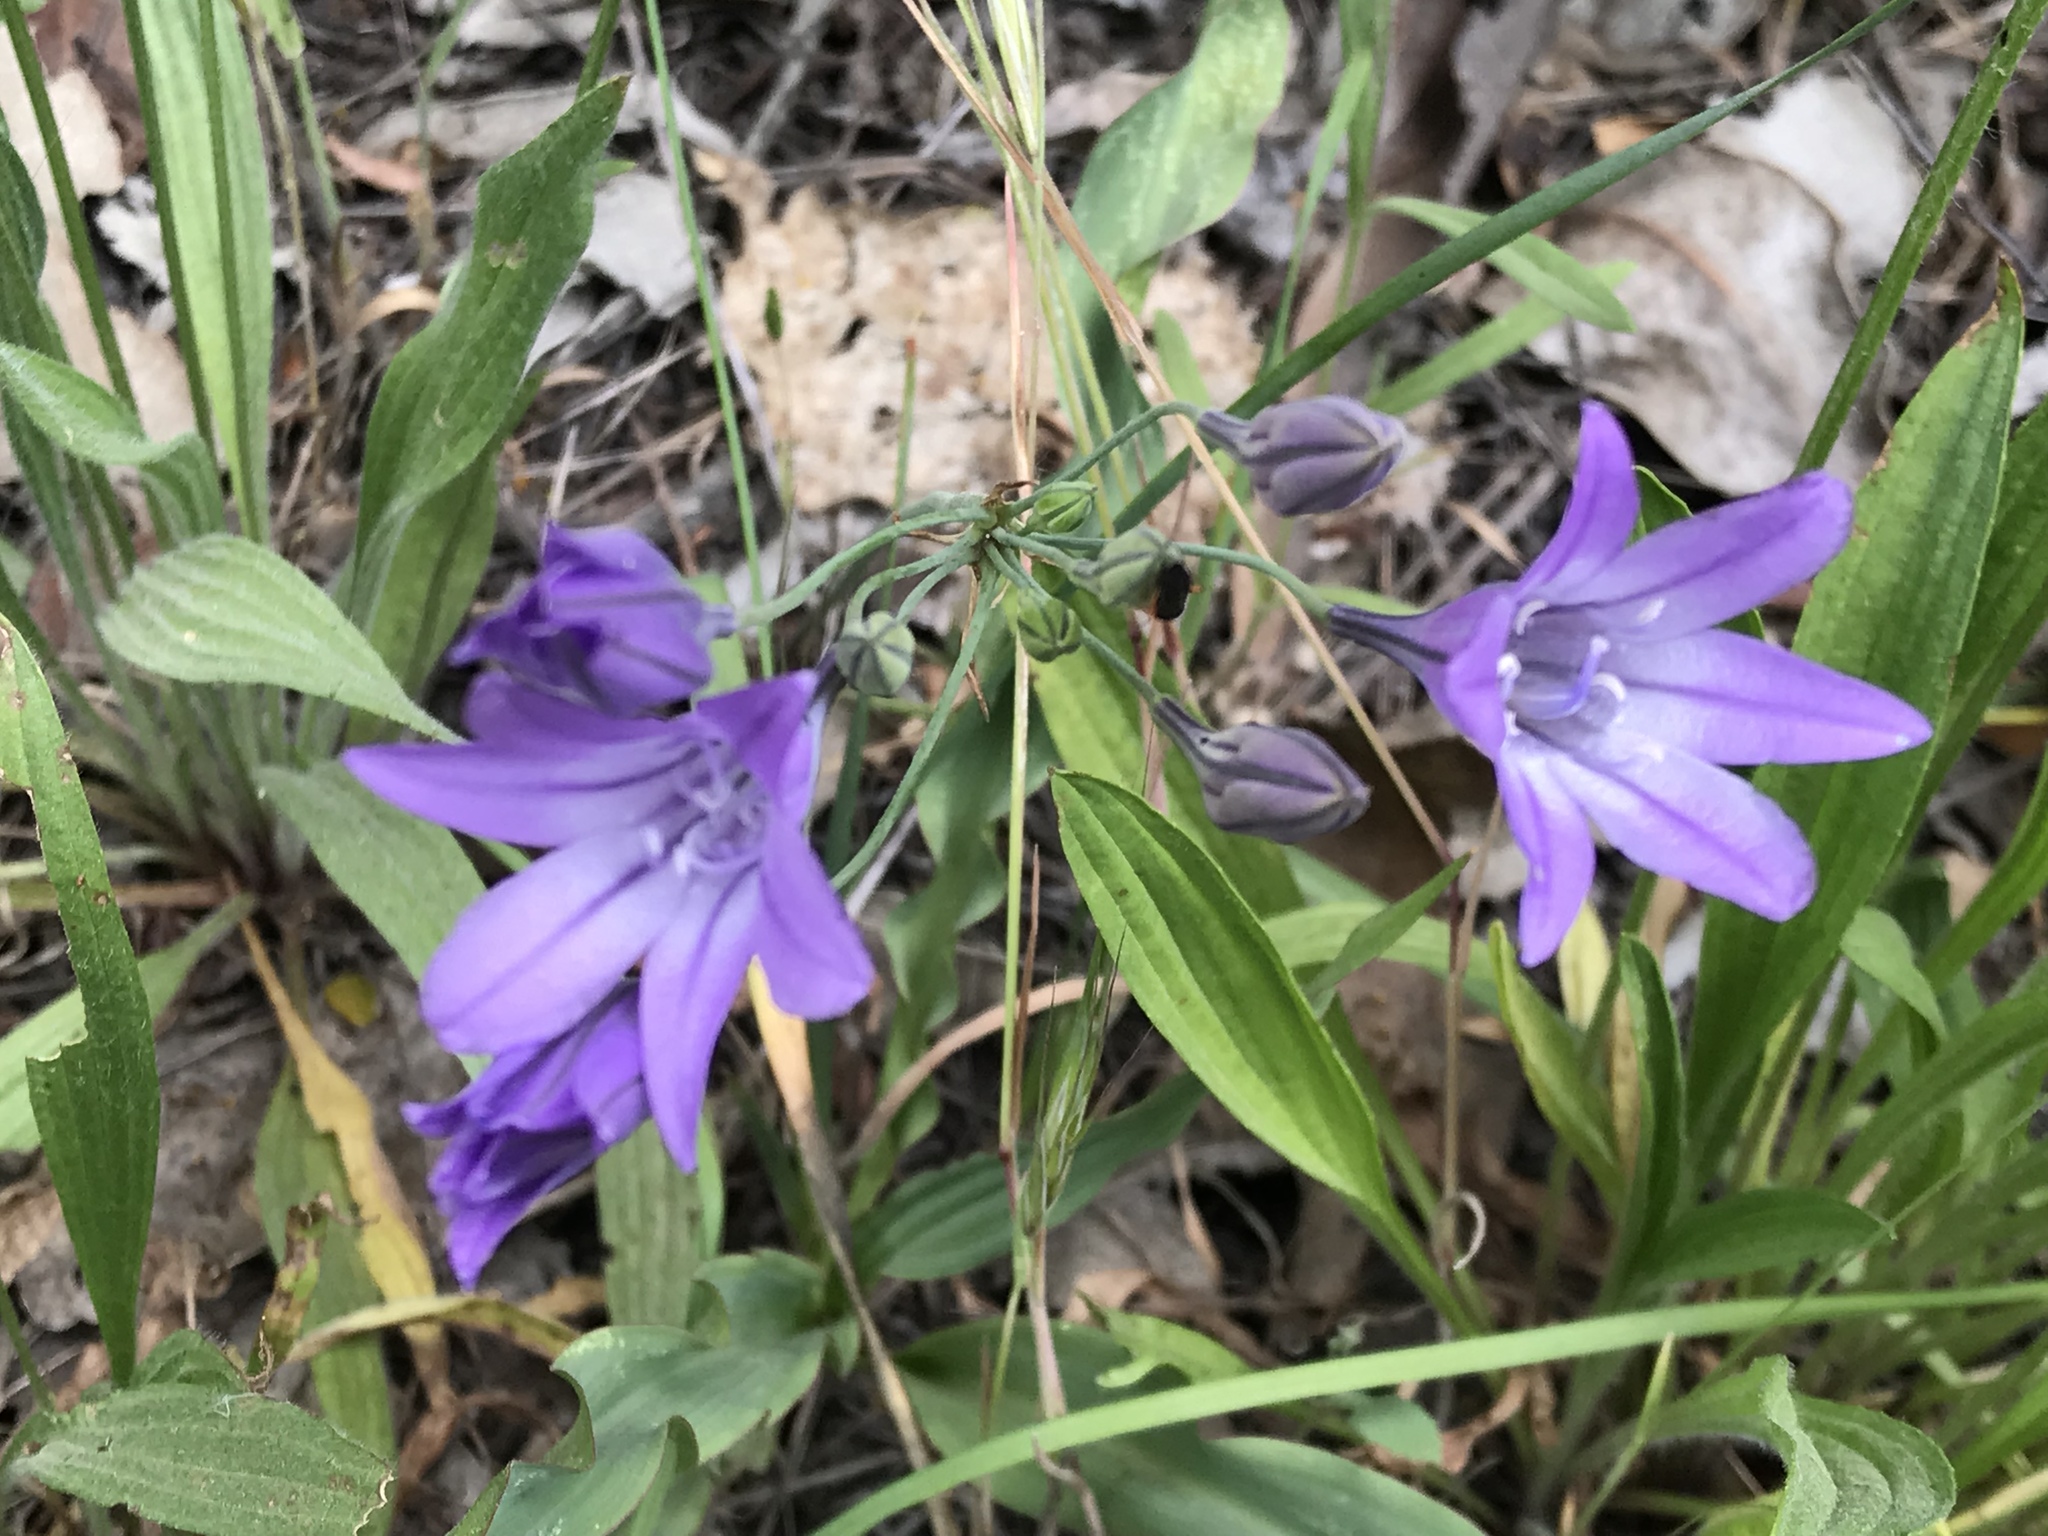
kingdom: Plantae
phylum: Tracheophyta
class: Liliopsida
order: Asparagales
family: Asparagaceae
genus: Triteleia
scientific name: Triteleia laxa
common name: Triplet-lily
